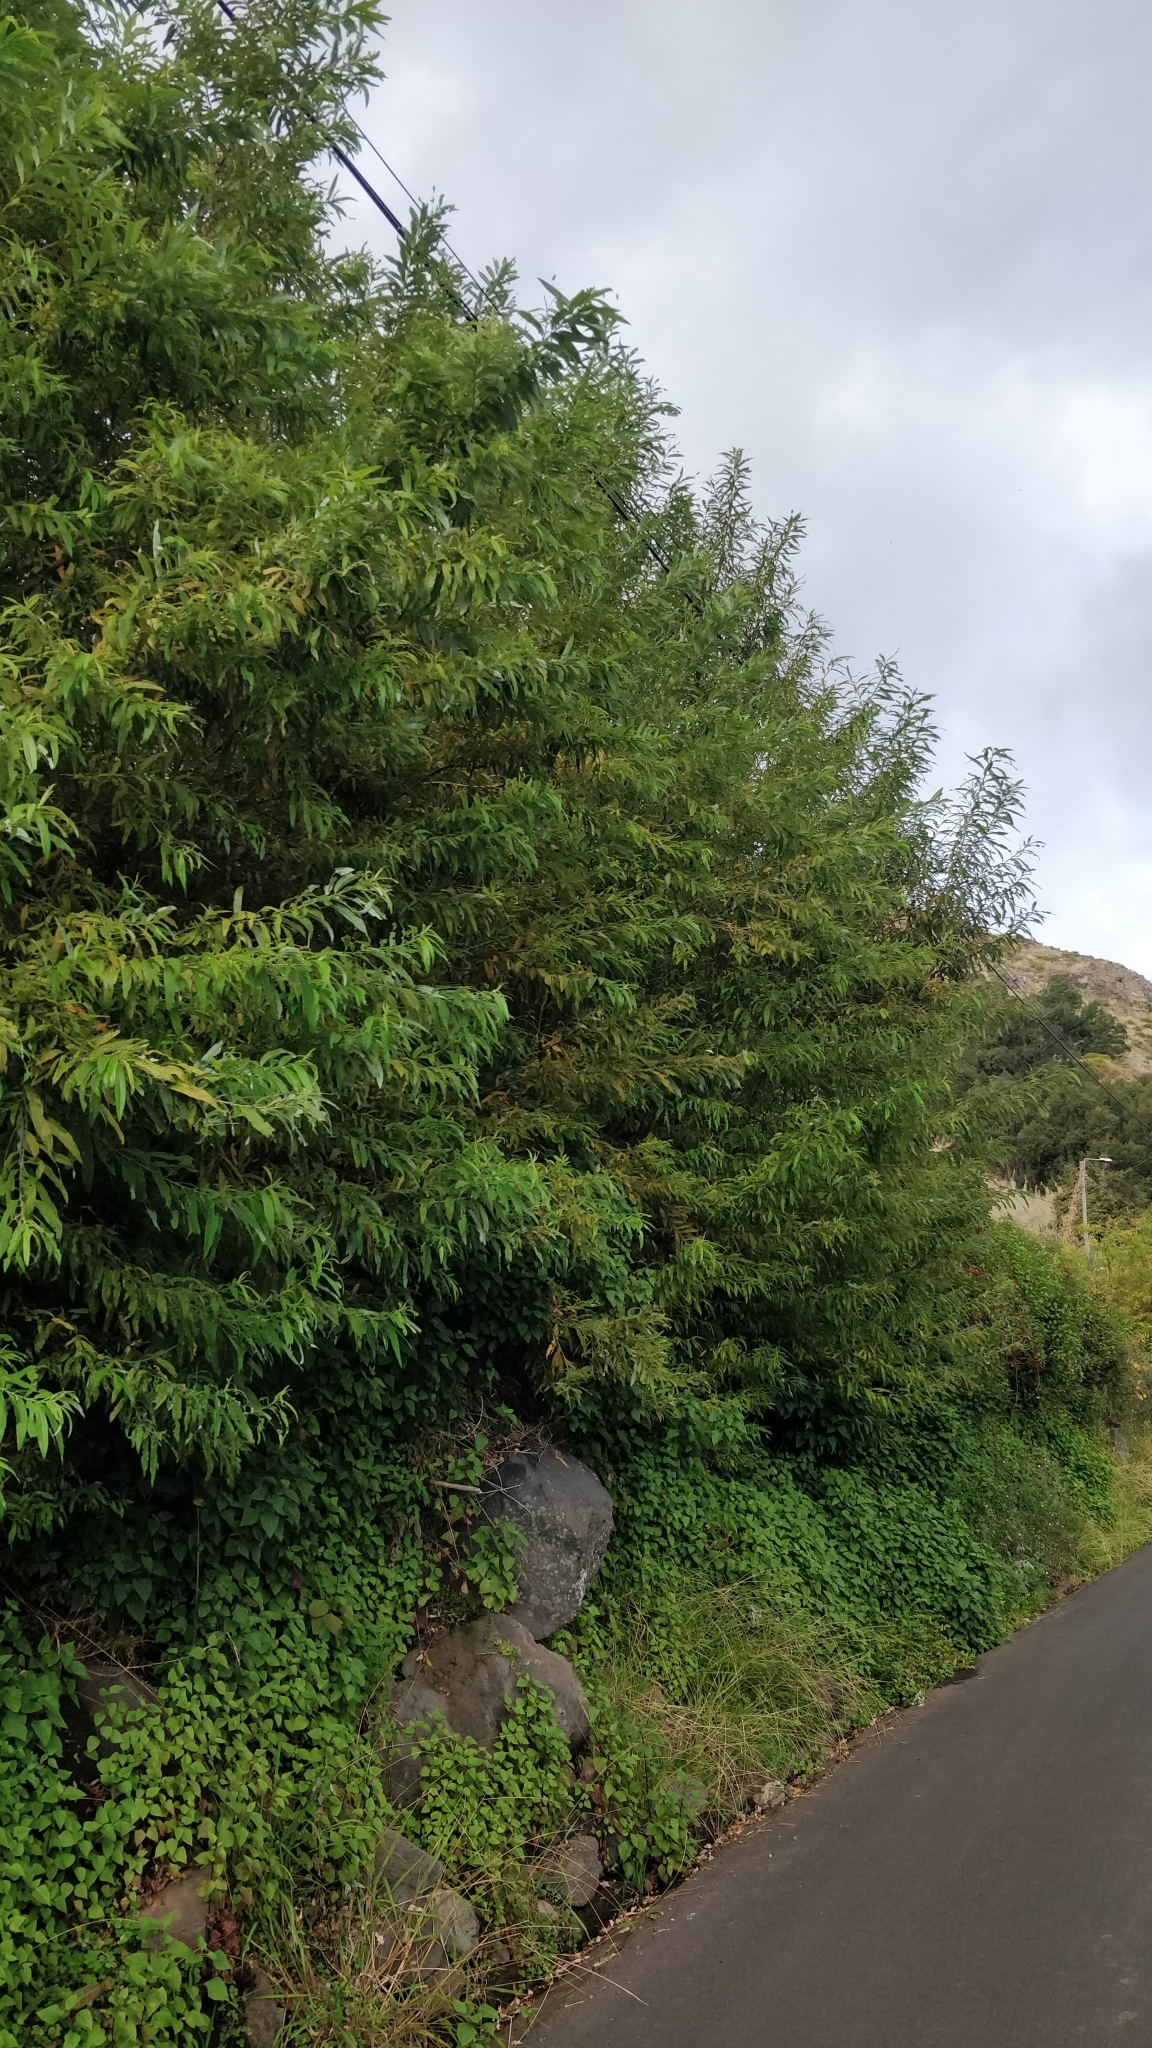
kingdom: Plantae
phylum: Tracheophyta
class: Magnoliopsida
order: Malpighiales
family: Salicaceae
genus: Salix
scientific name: Salix canariensis
